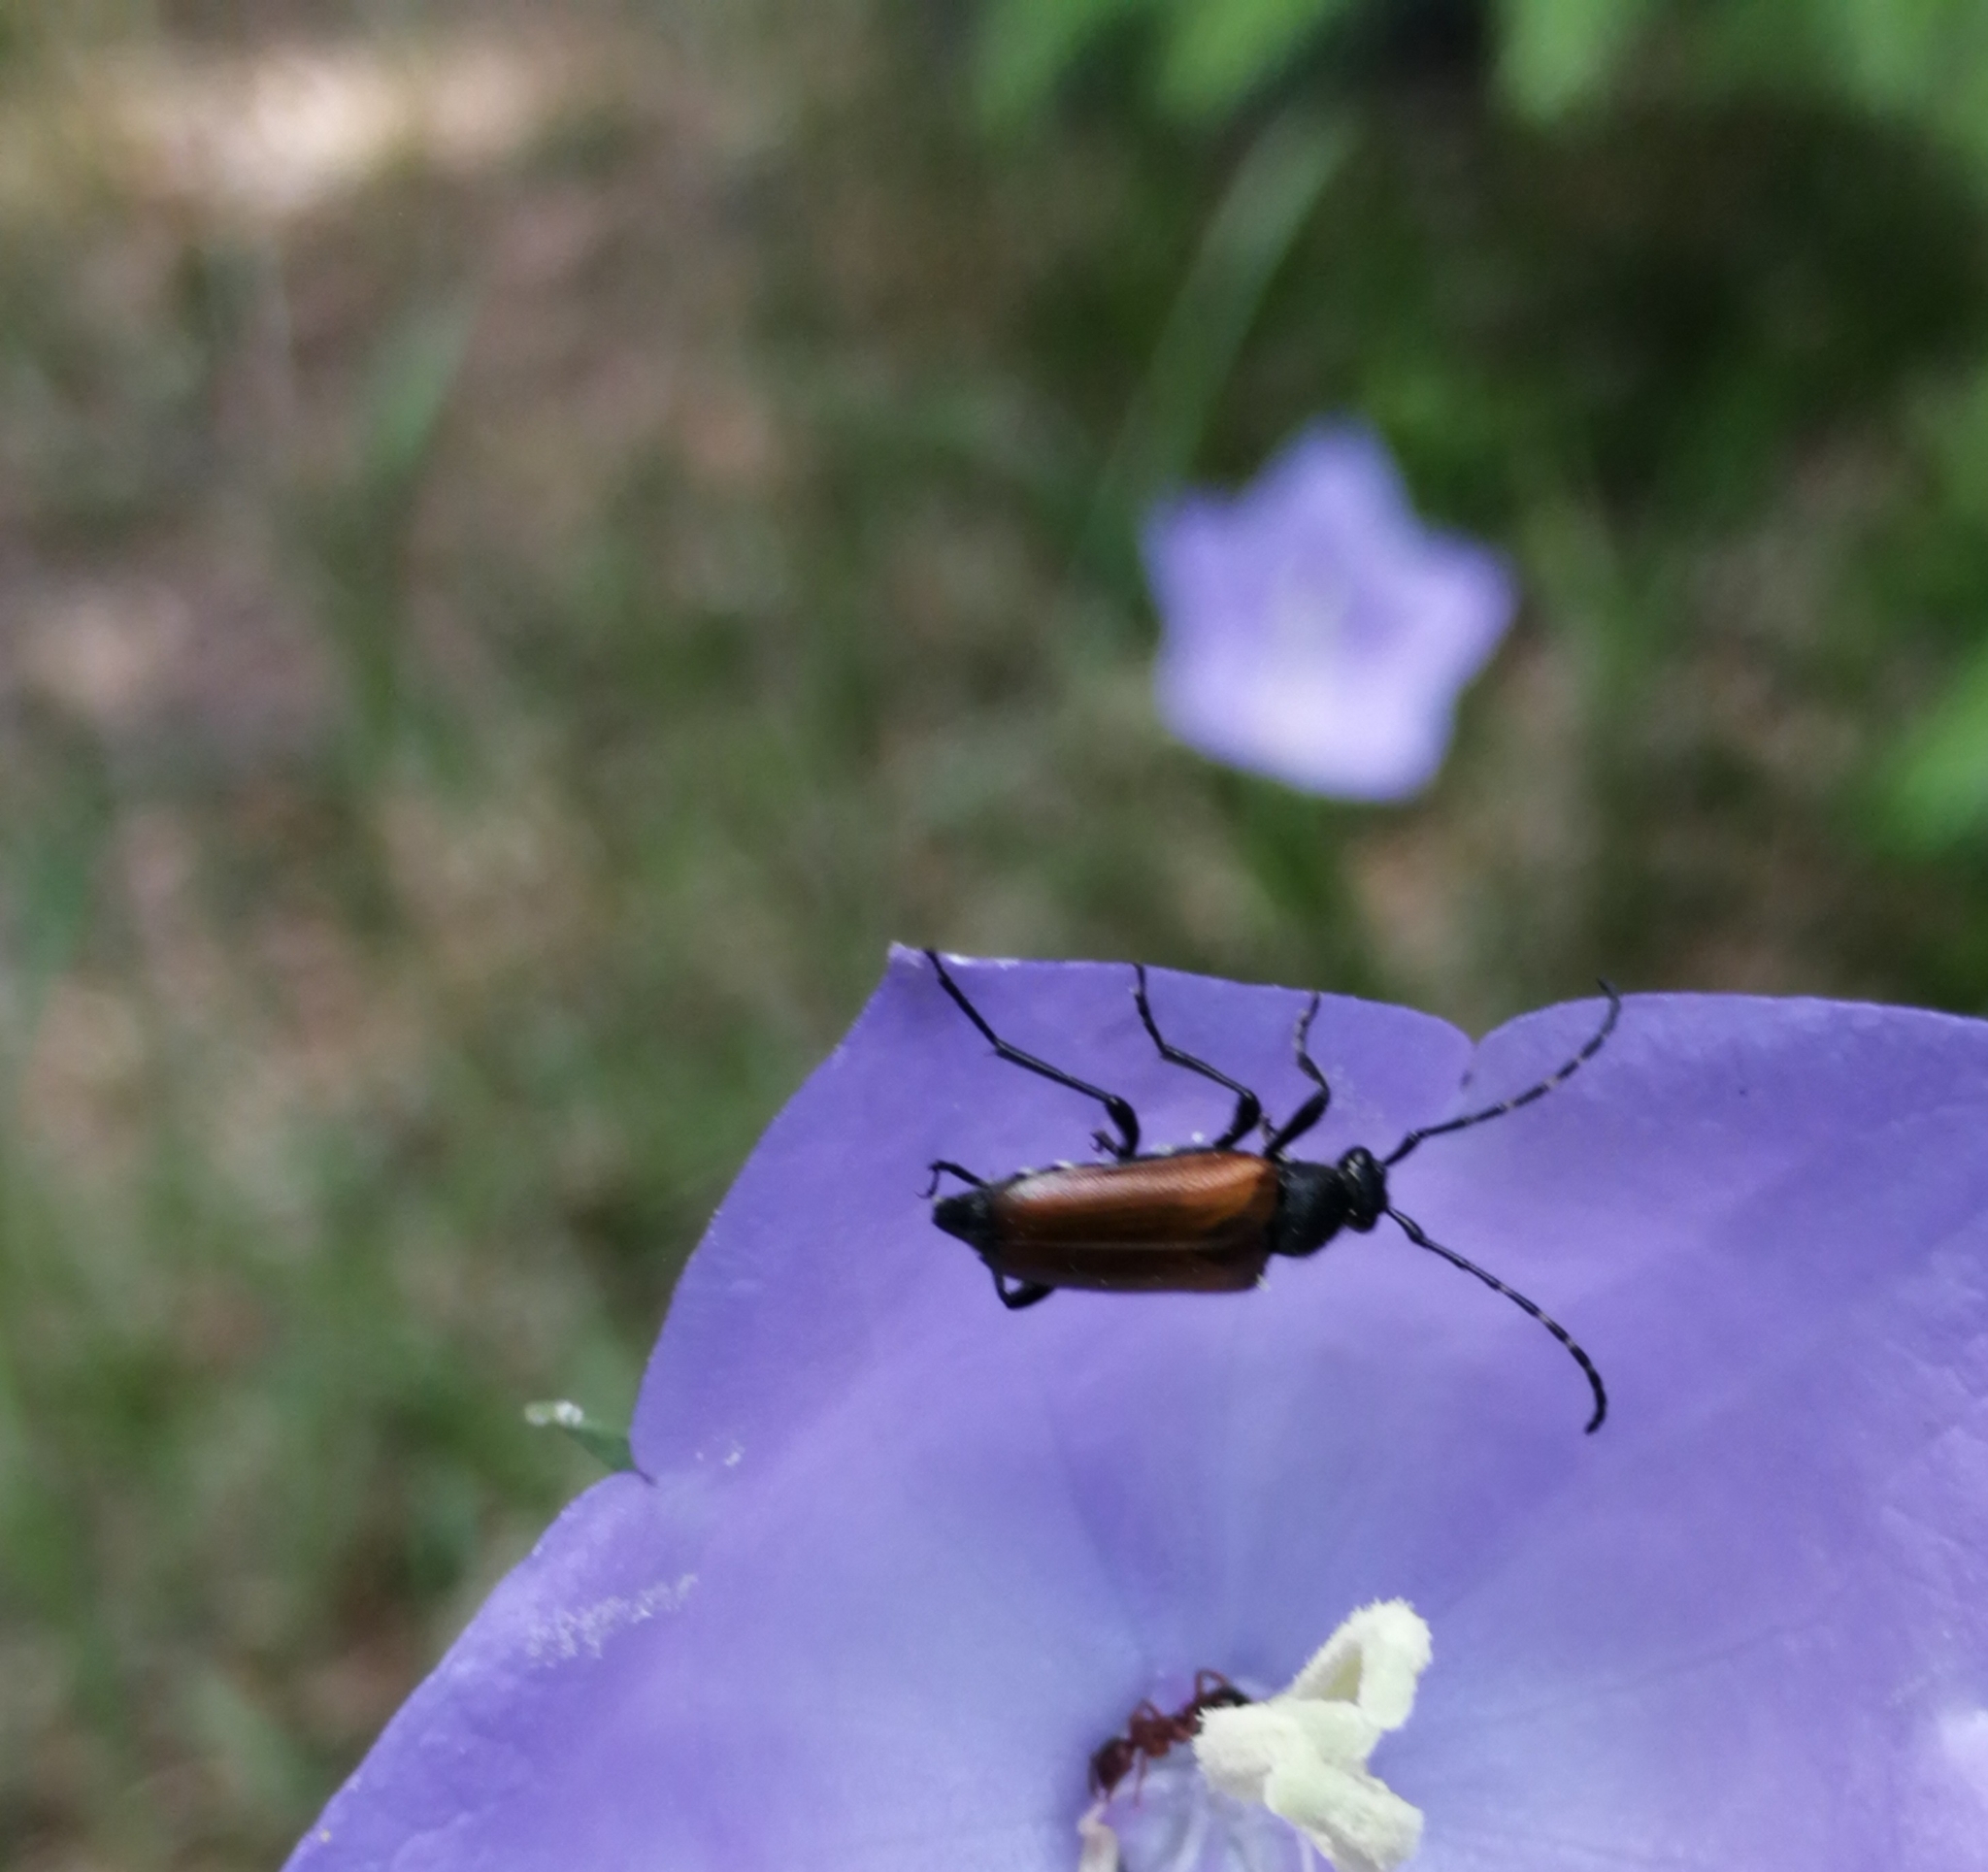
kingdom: Animalia
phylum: Arthropoda
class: Insecta
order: Coleoptera
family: Cerambycidae
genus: Paracorymbia
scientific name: Paracorymbia maculicornis
